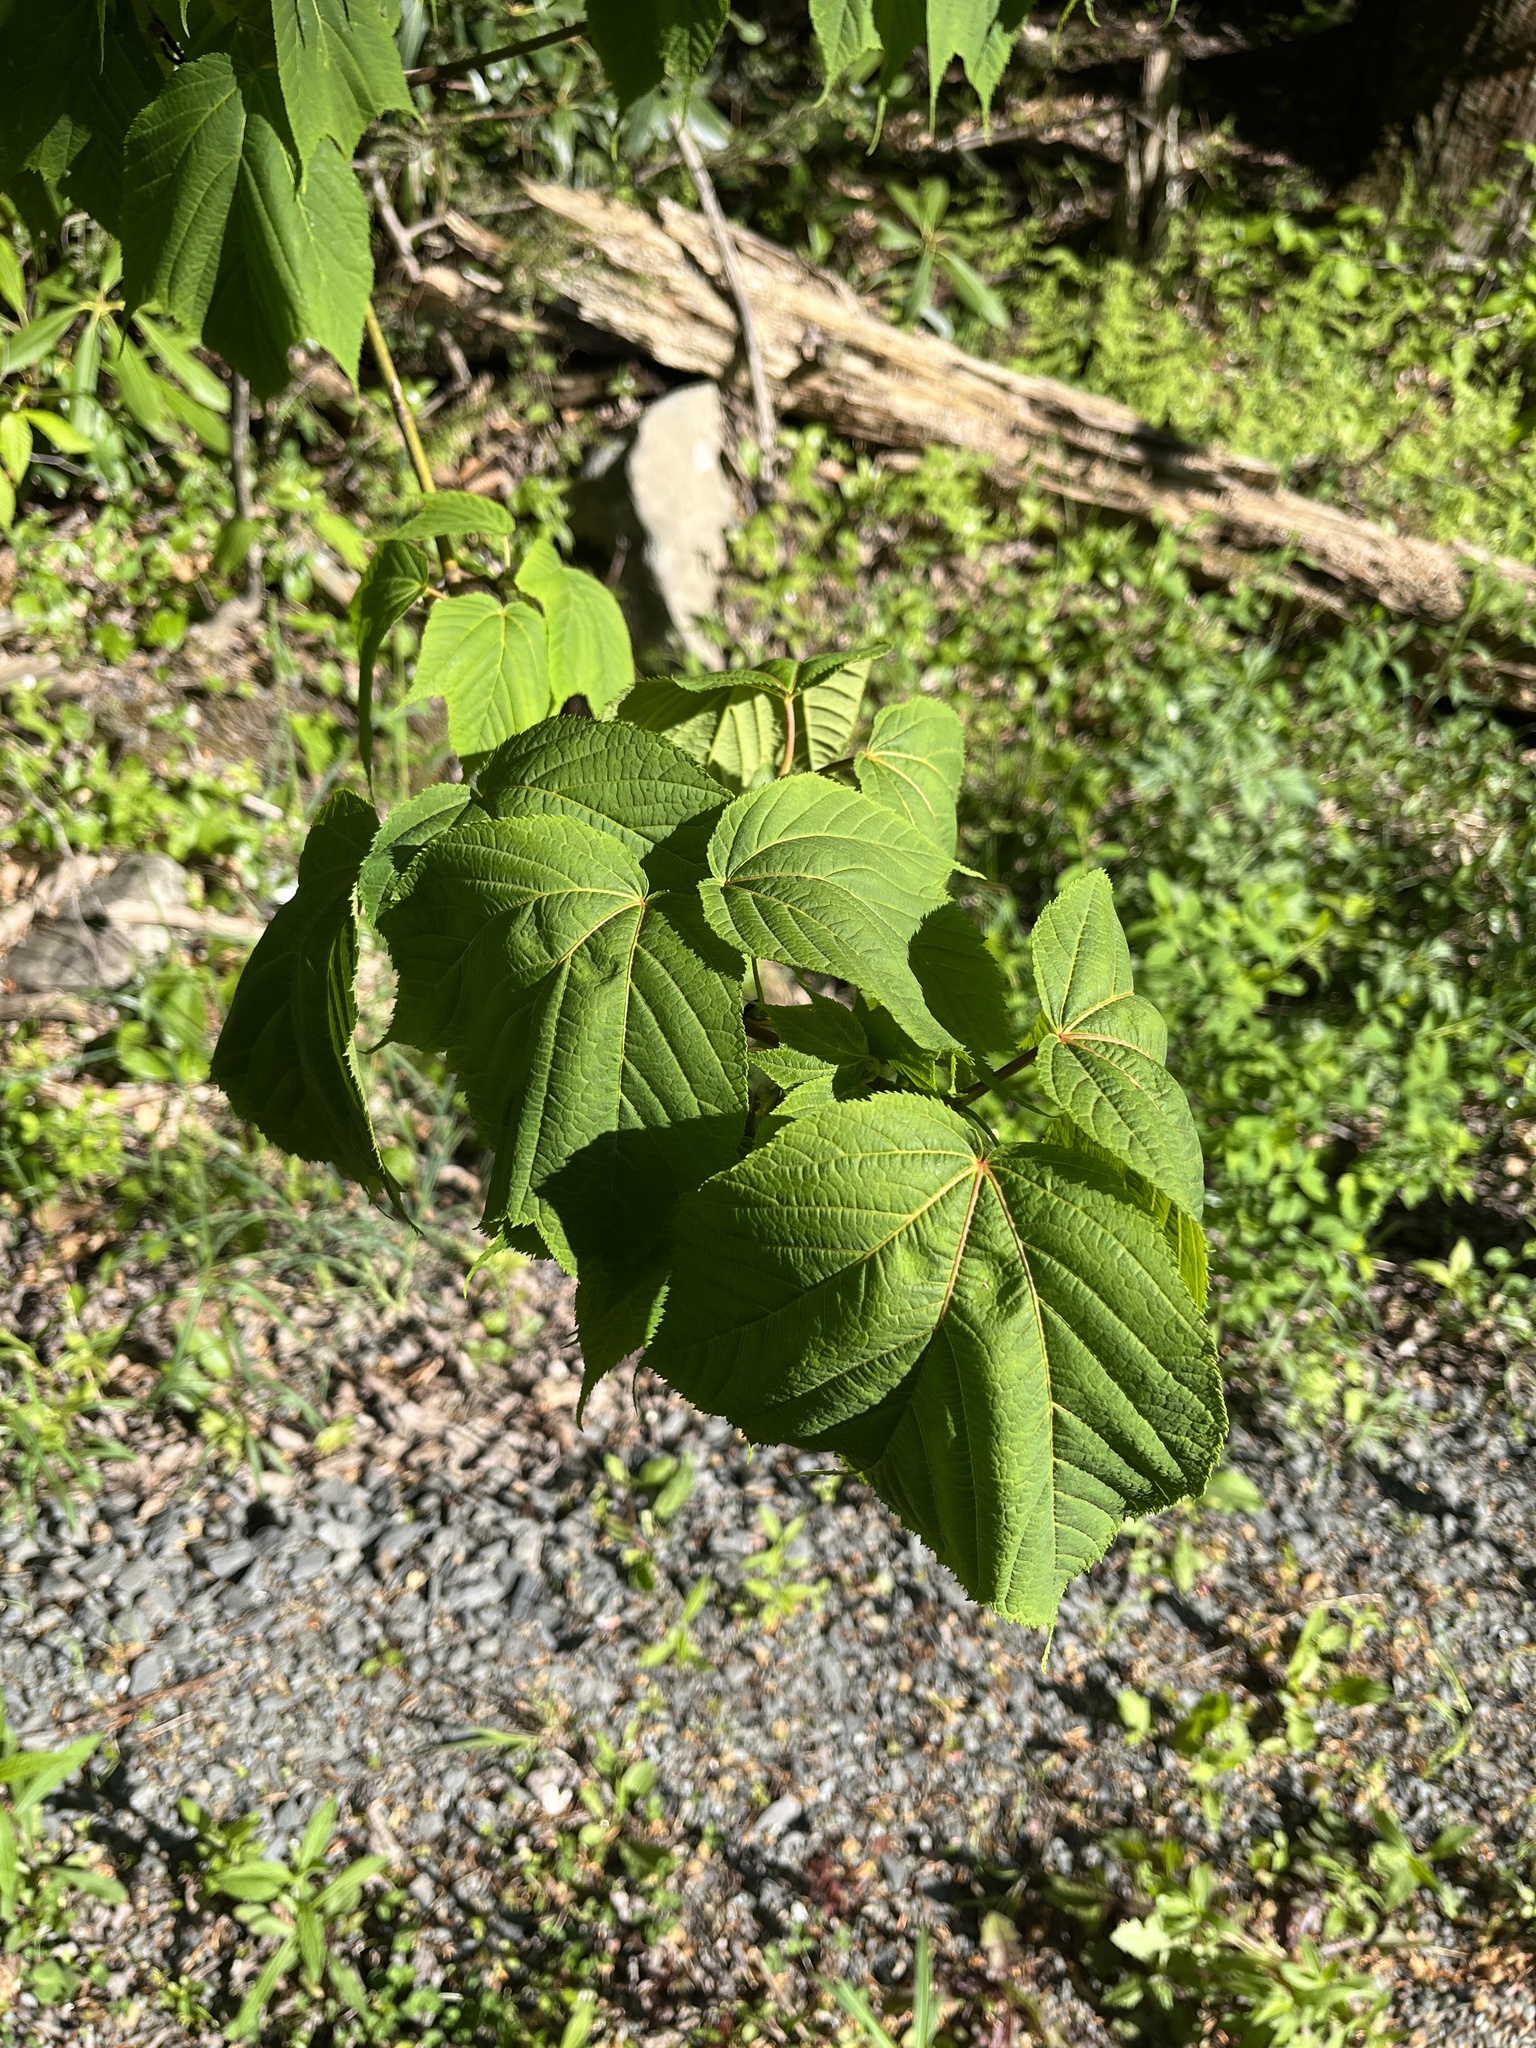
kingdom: Plantae
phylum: Tracheophyta
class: Magnoliopsida
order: Sapindales
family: Sapindaceae
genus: Acer
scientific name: Acer pensylvanicum
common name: Moosewood
